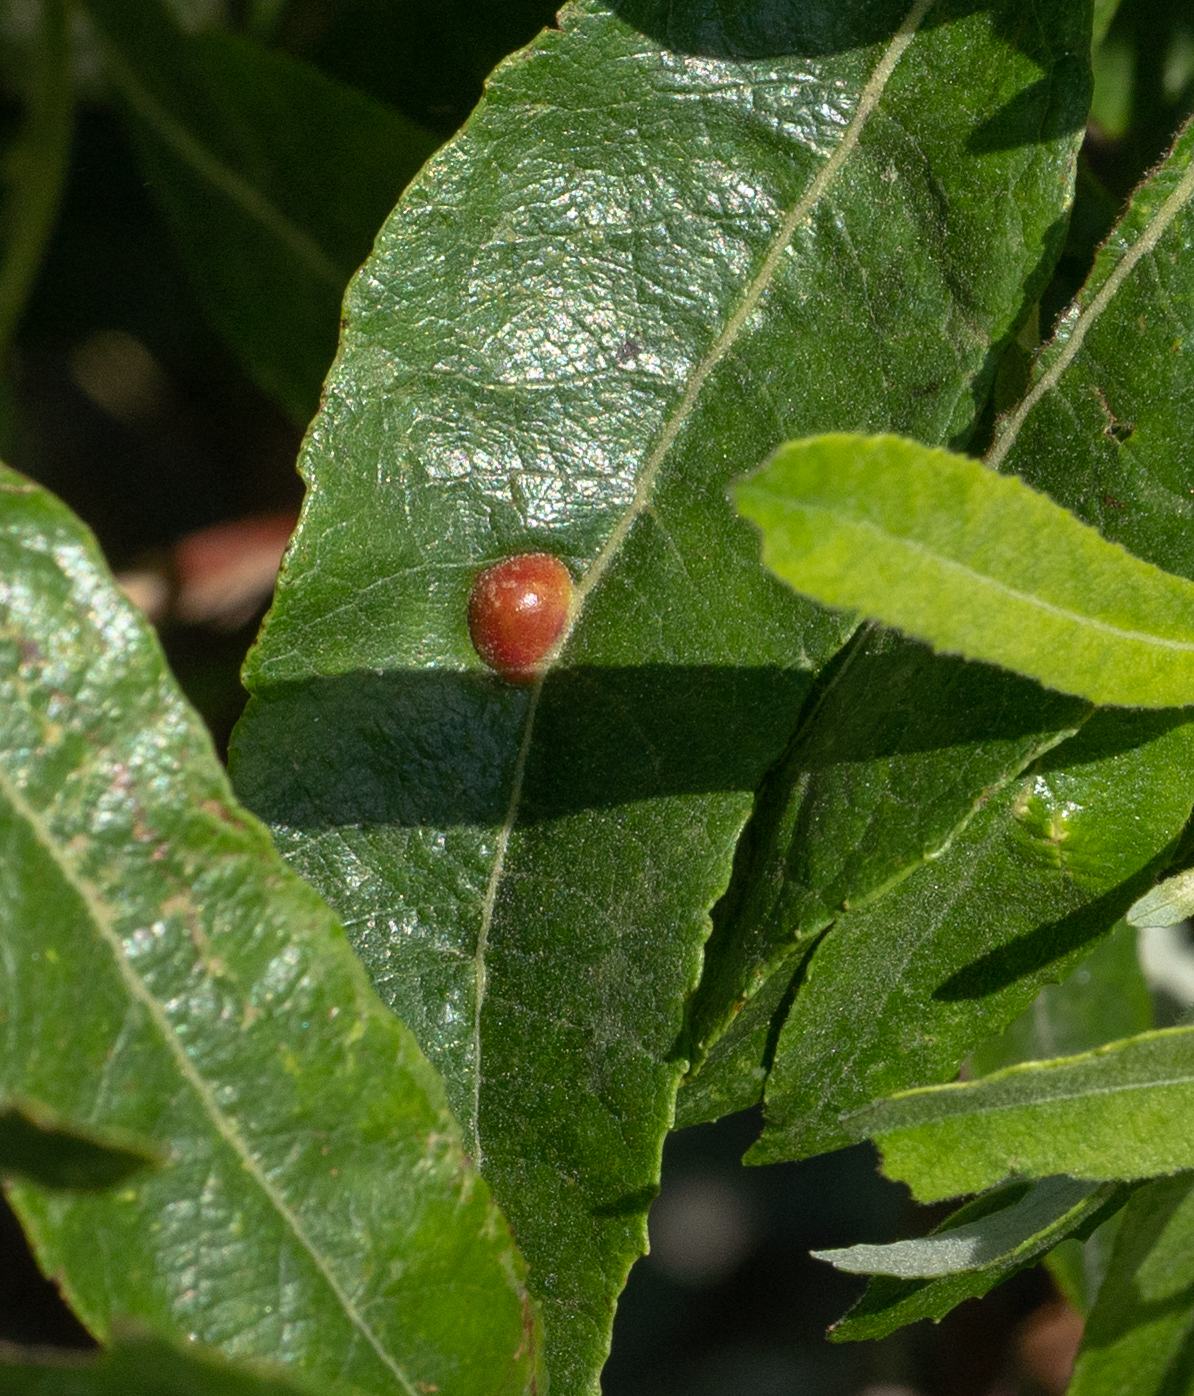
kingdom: Animalia
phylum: Arthropoda
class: Insecta
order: Hymenoptera
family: Tenthredinidae
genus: Euura
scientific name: Euura
